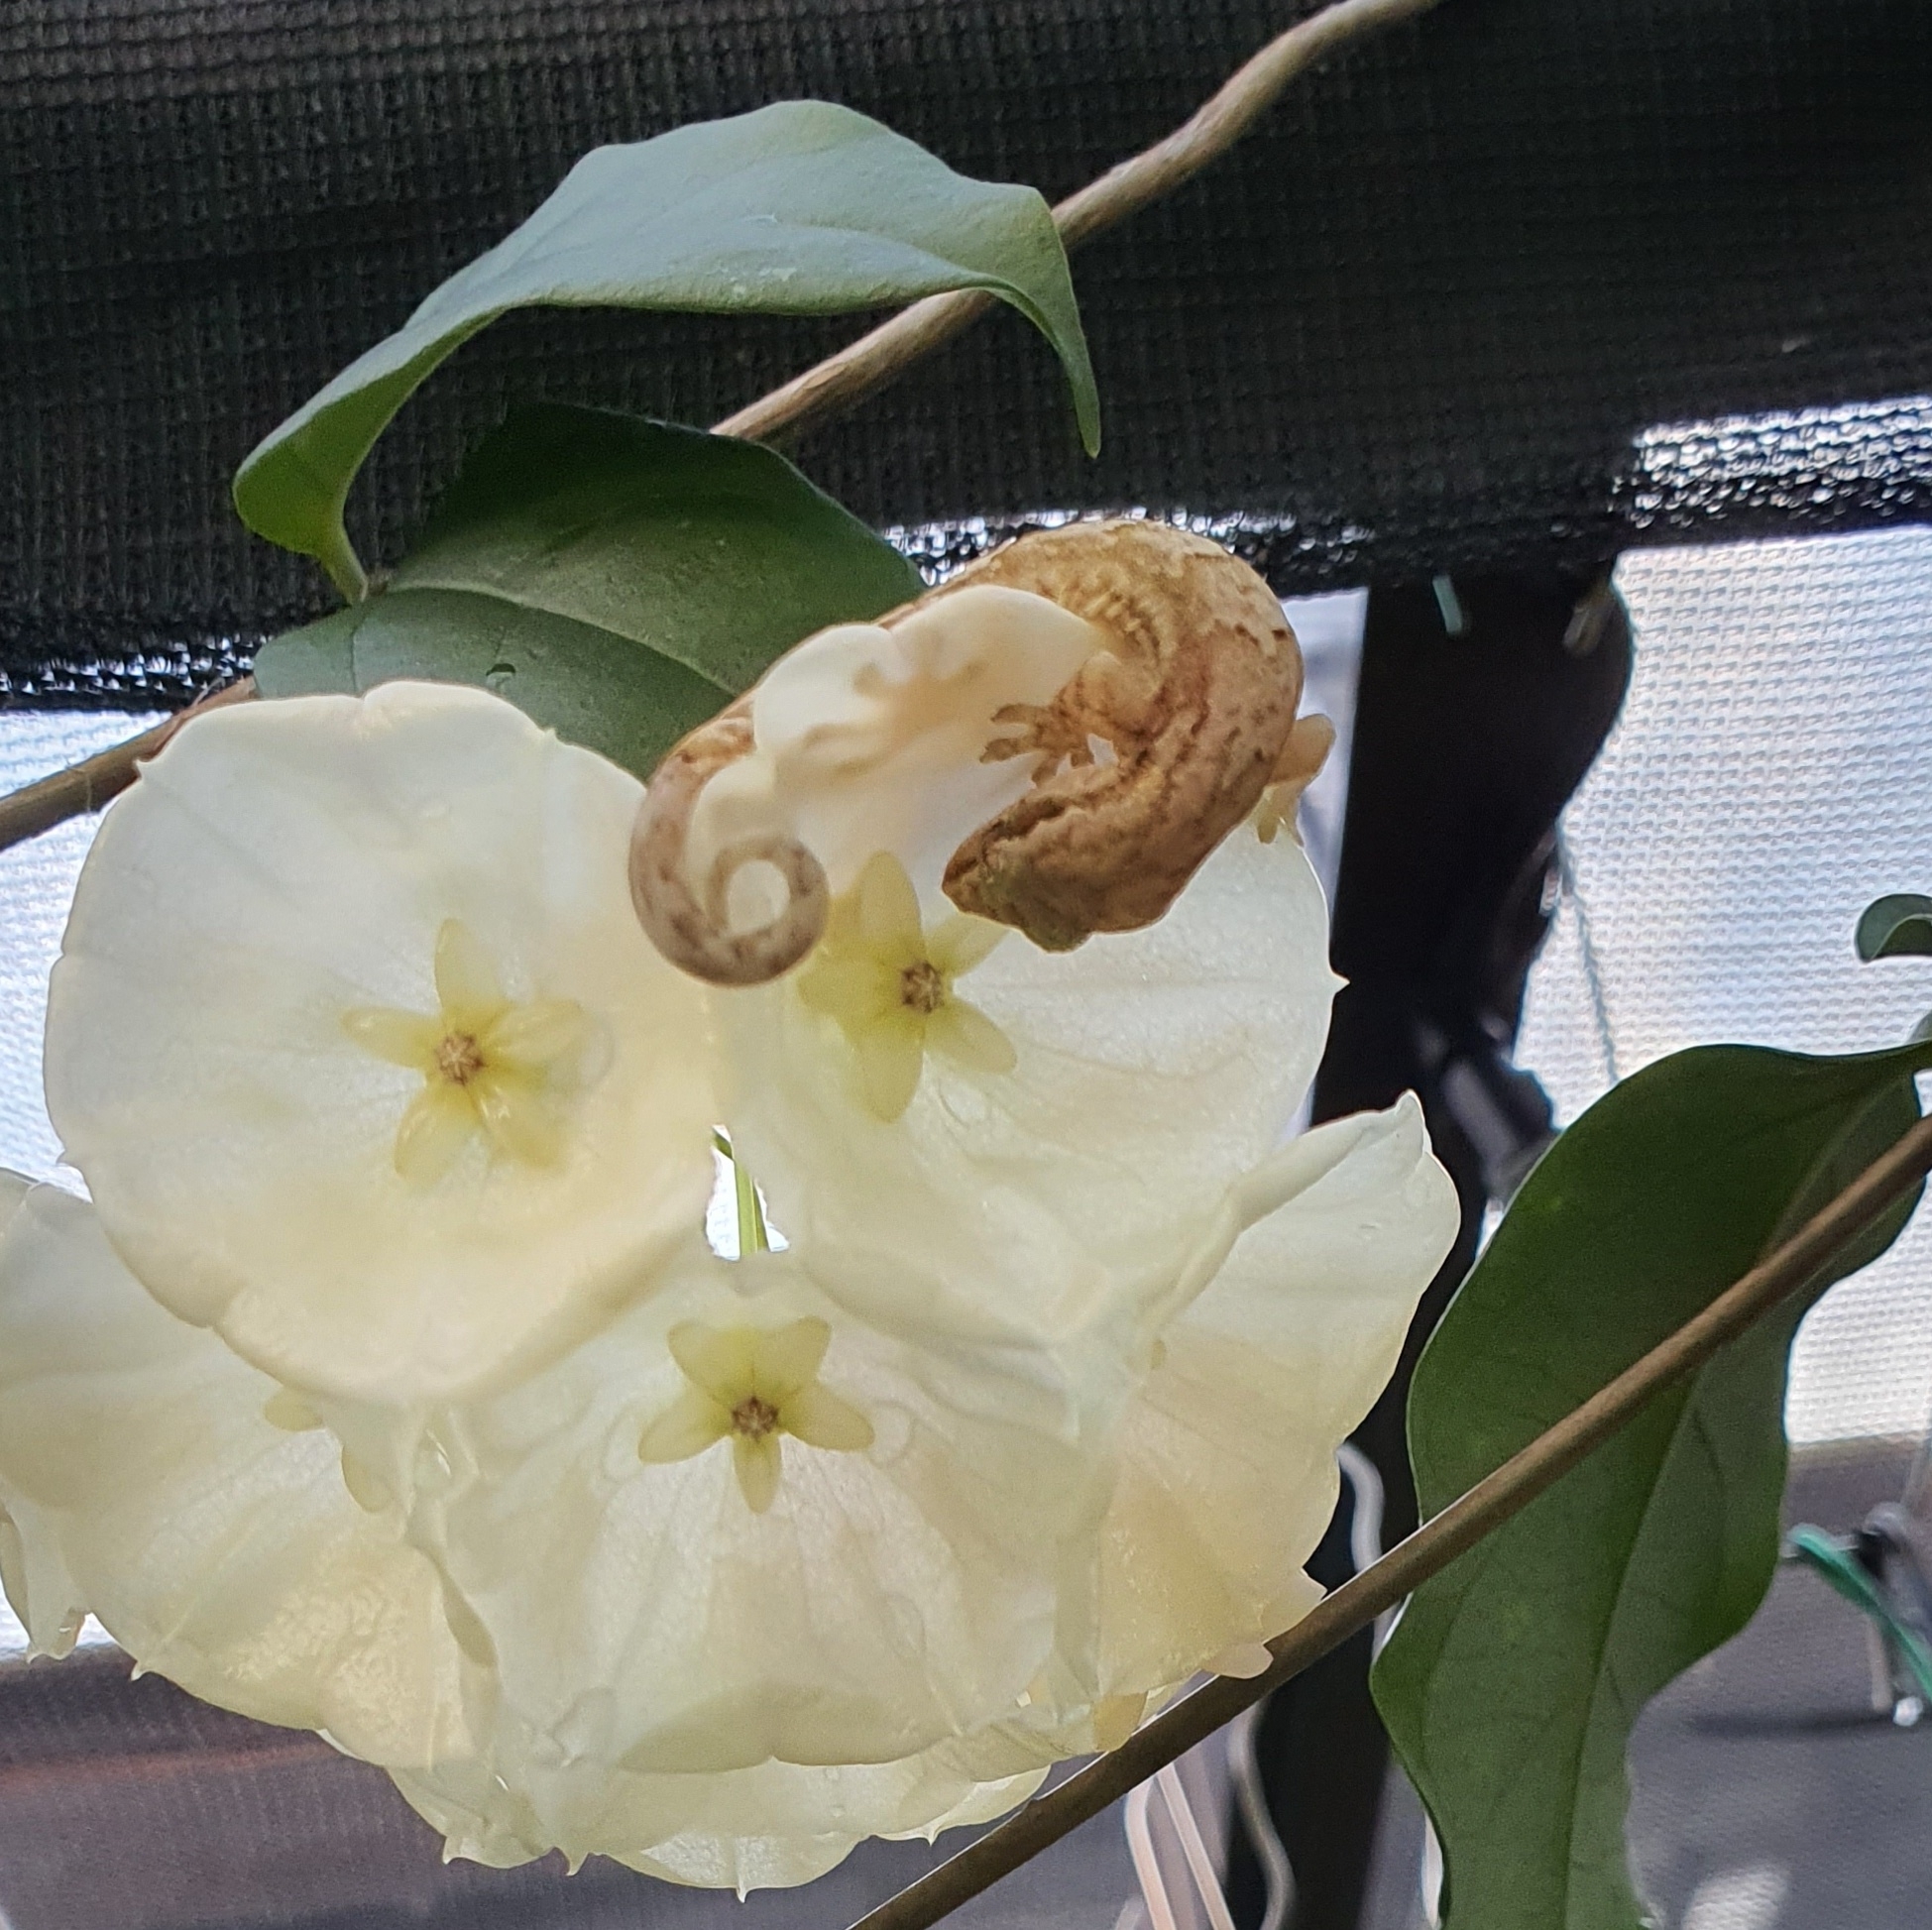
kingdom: Animalia
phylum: Chordata
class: Squamata
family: Gekkonidae
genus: Lepidodactylus
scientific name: Lepidodactylus lugubris
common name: Mourning gecko
